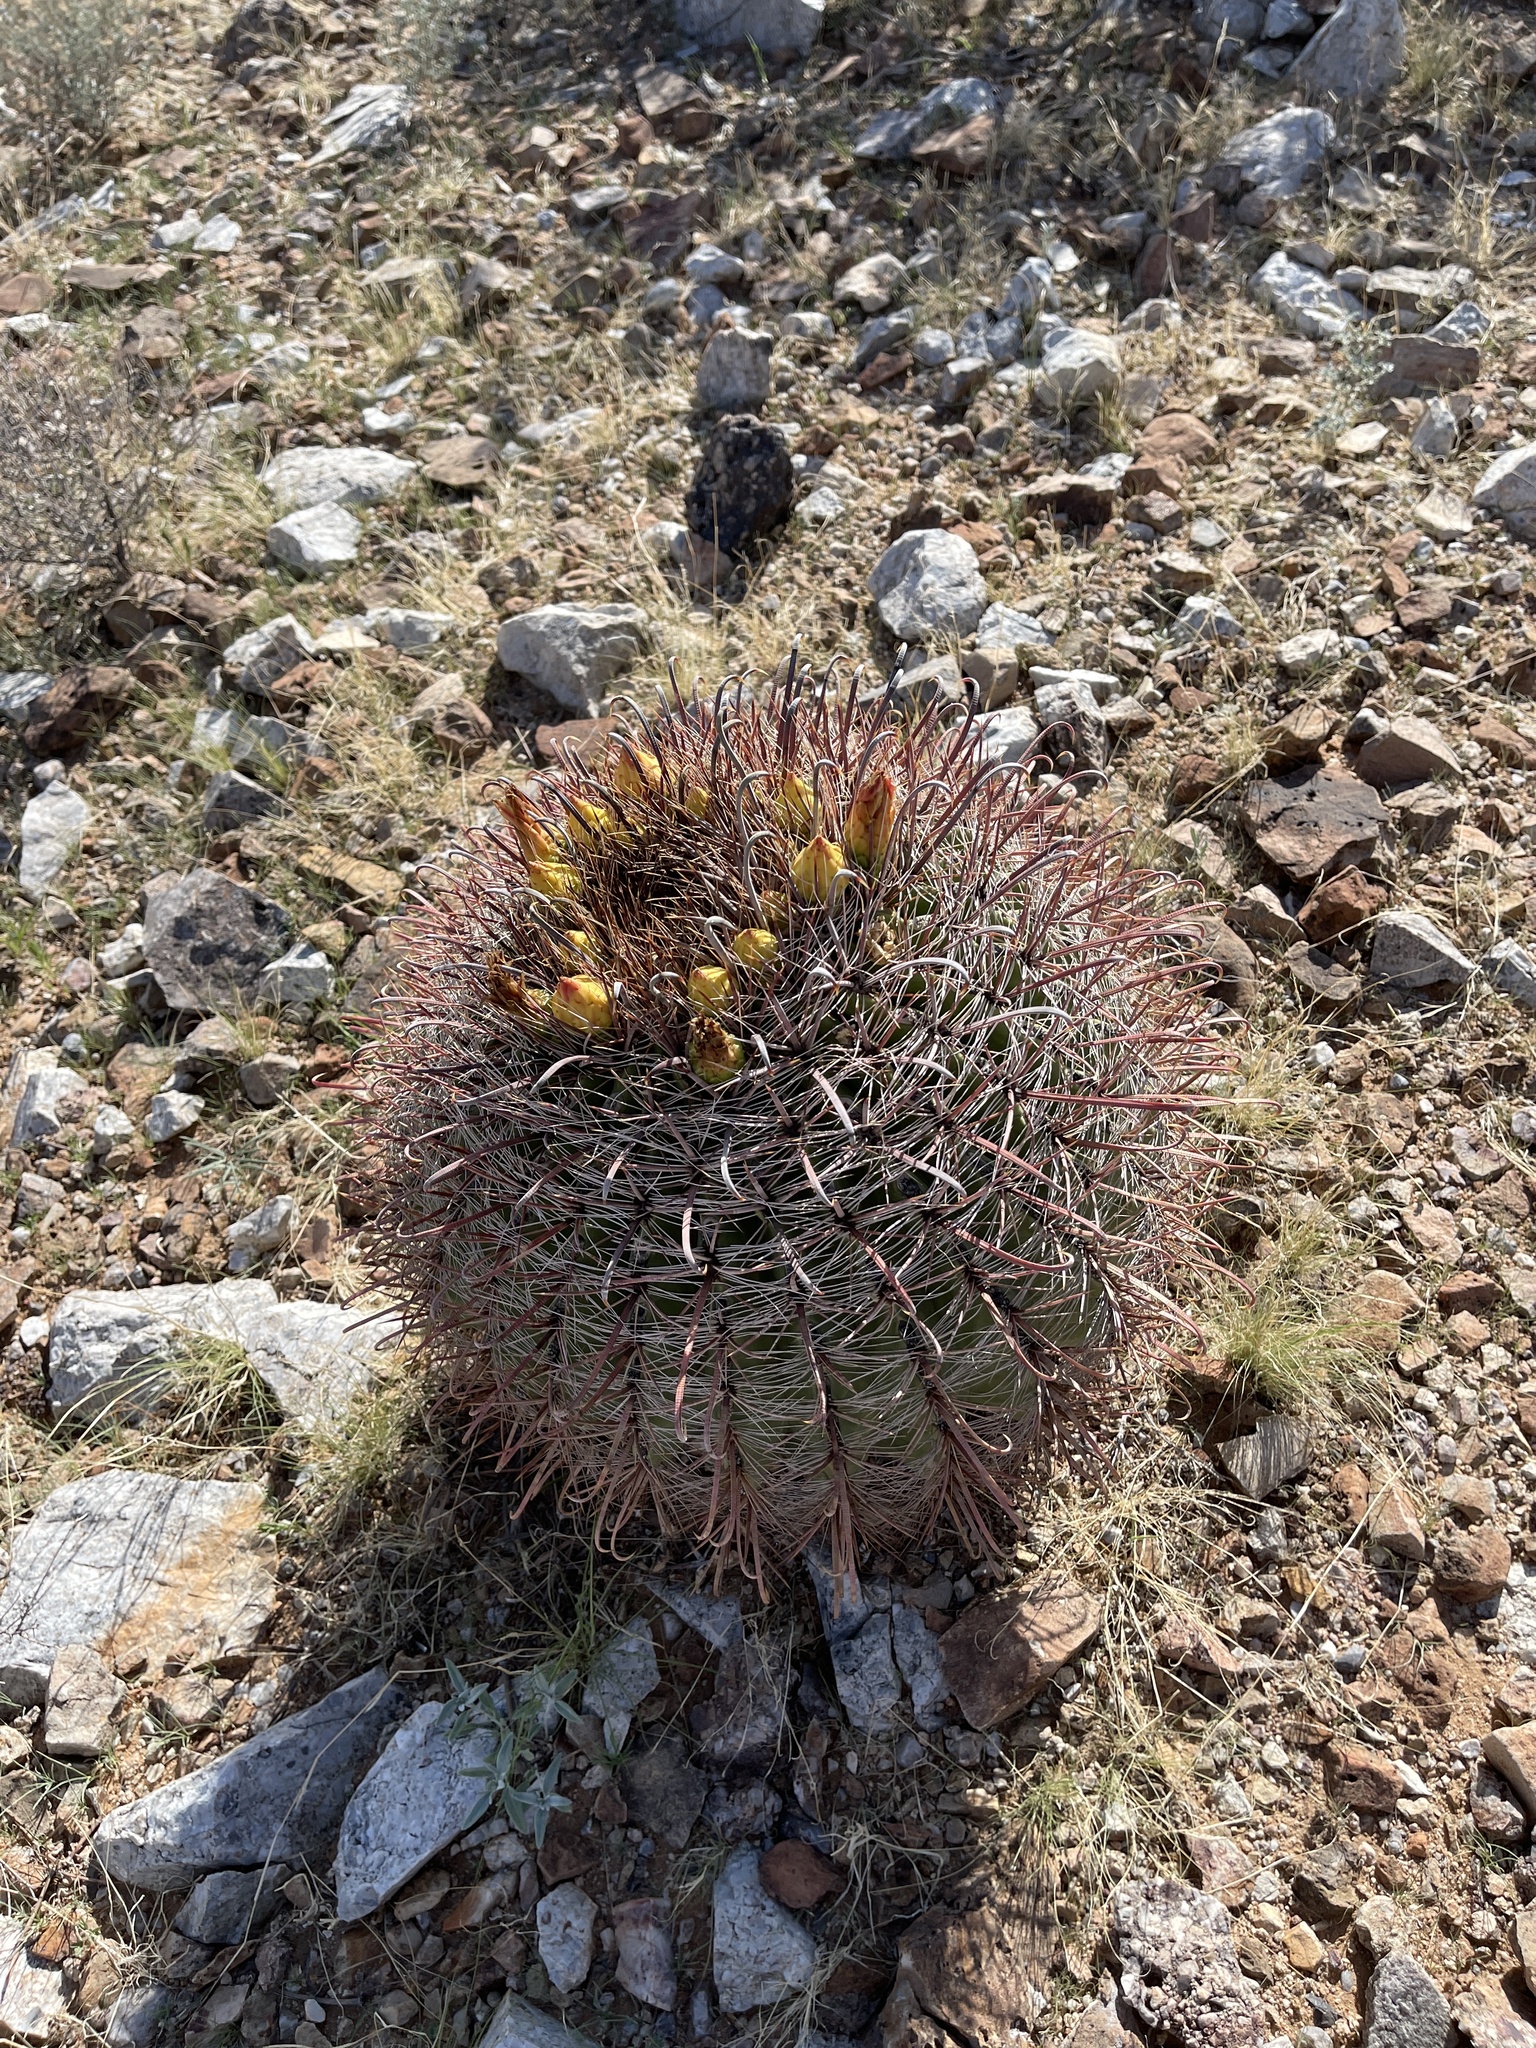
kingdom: Plantae
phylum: Tracheophyta
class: Magnoliopsida
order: Caryophyllales
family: Cactaceae
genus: Ferocactus
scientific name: Ferocactus wislizeni
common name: Candy barrel cactus
